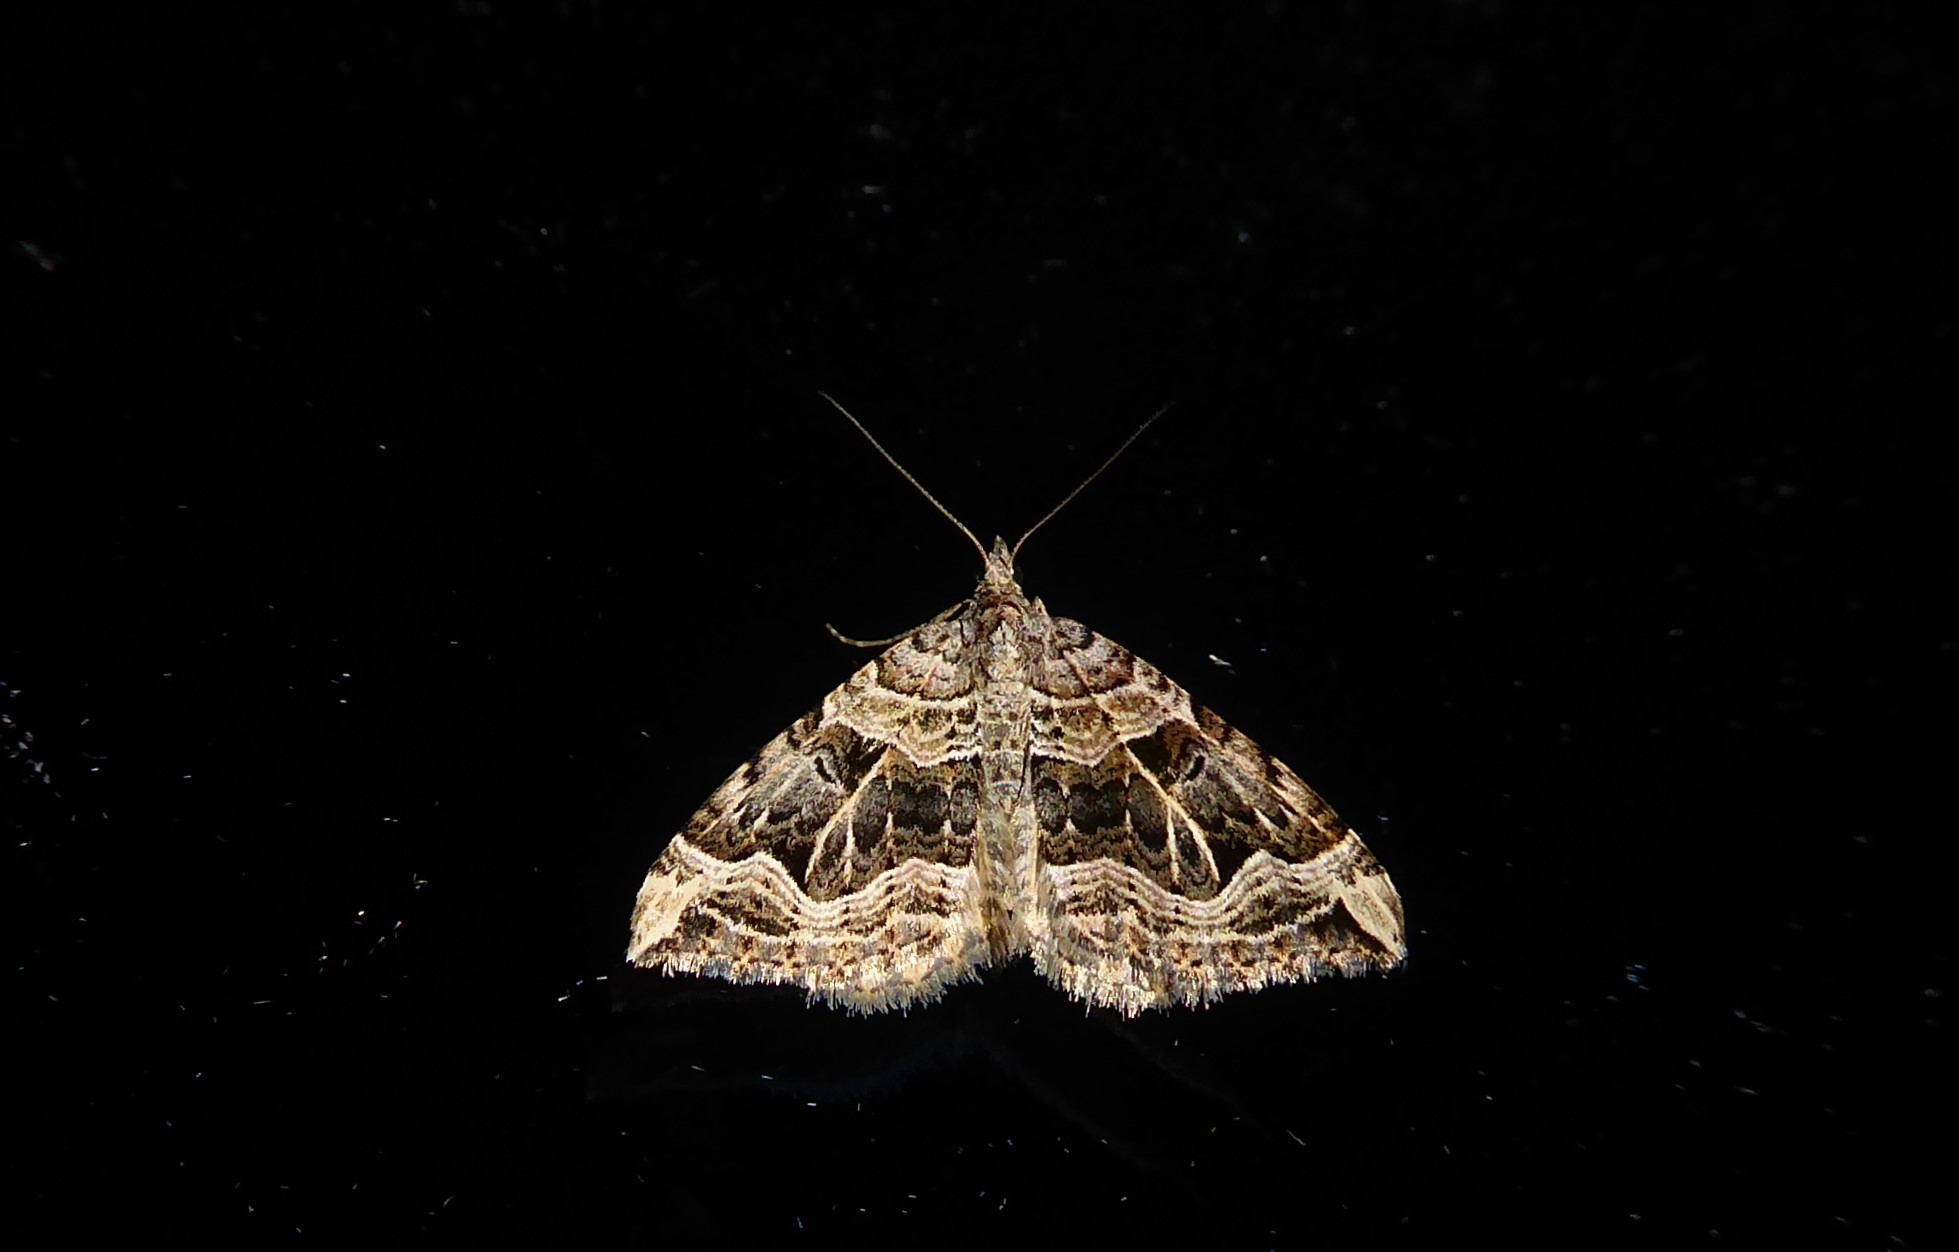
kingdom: Animalia
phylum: Arthropoda
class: Insecta
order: Lepidoptera
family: Geometridae
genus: Xanthorhoe
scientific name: Xanthorhoe semifissata
